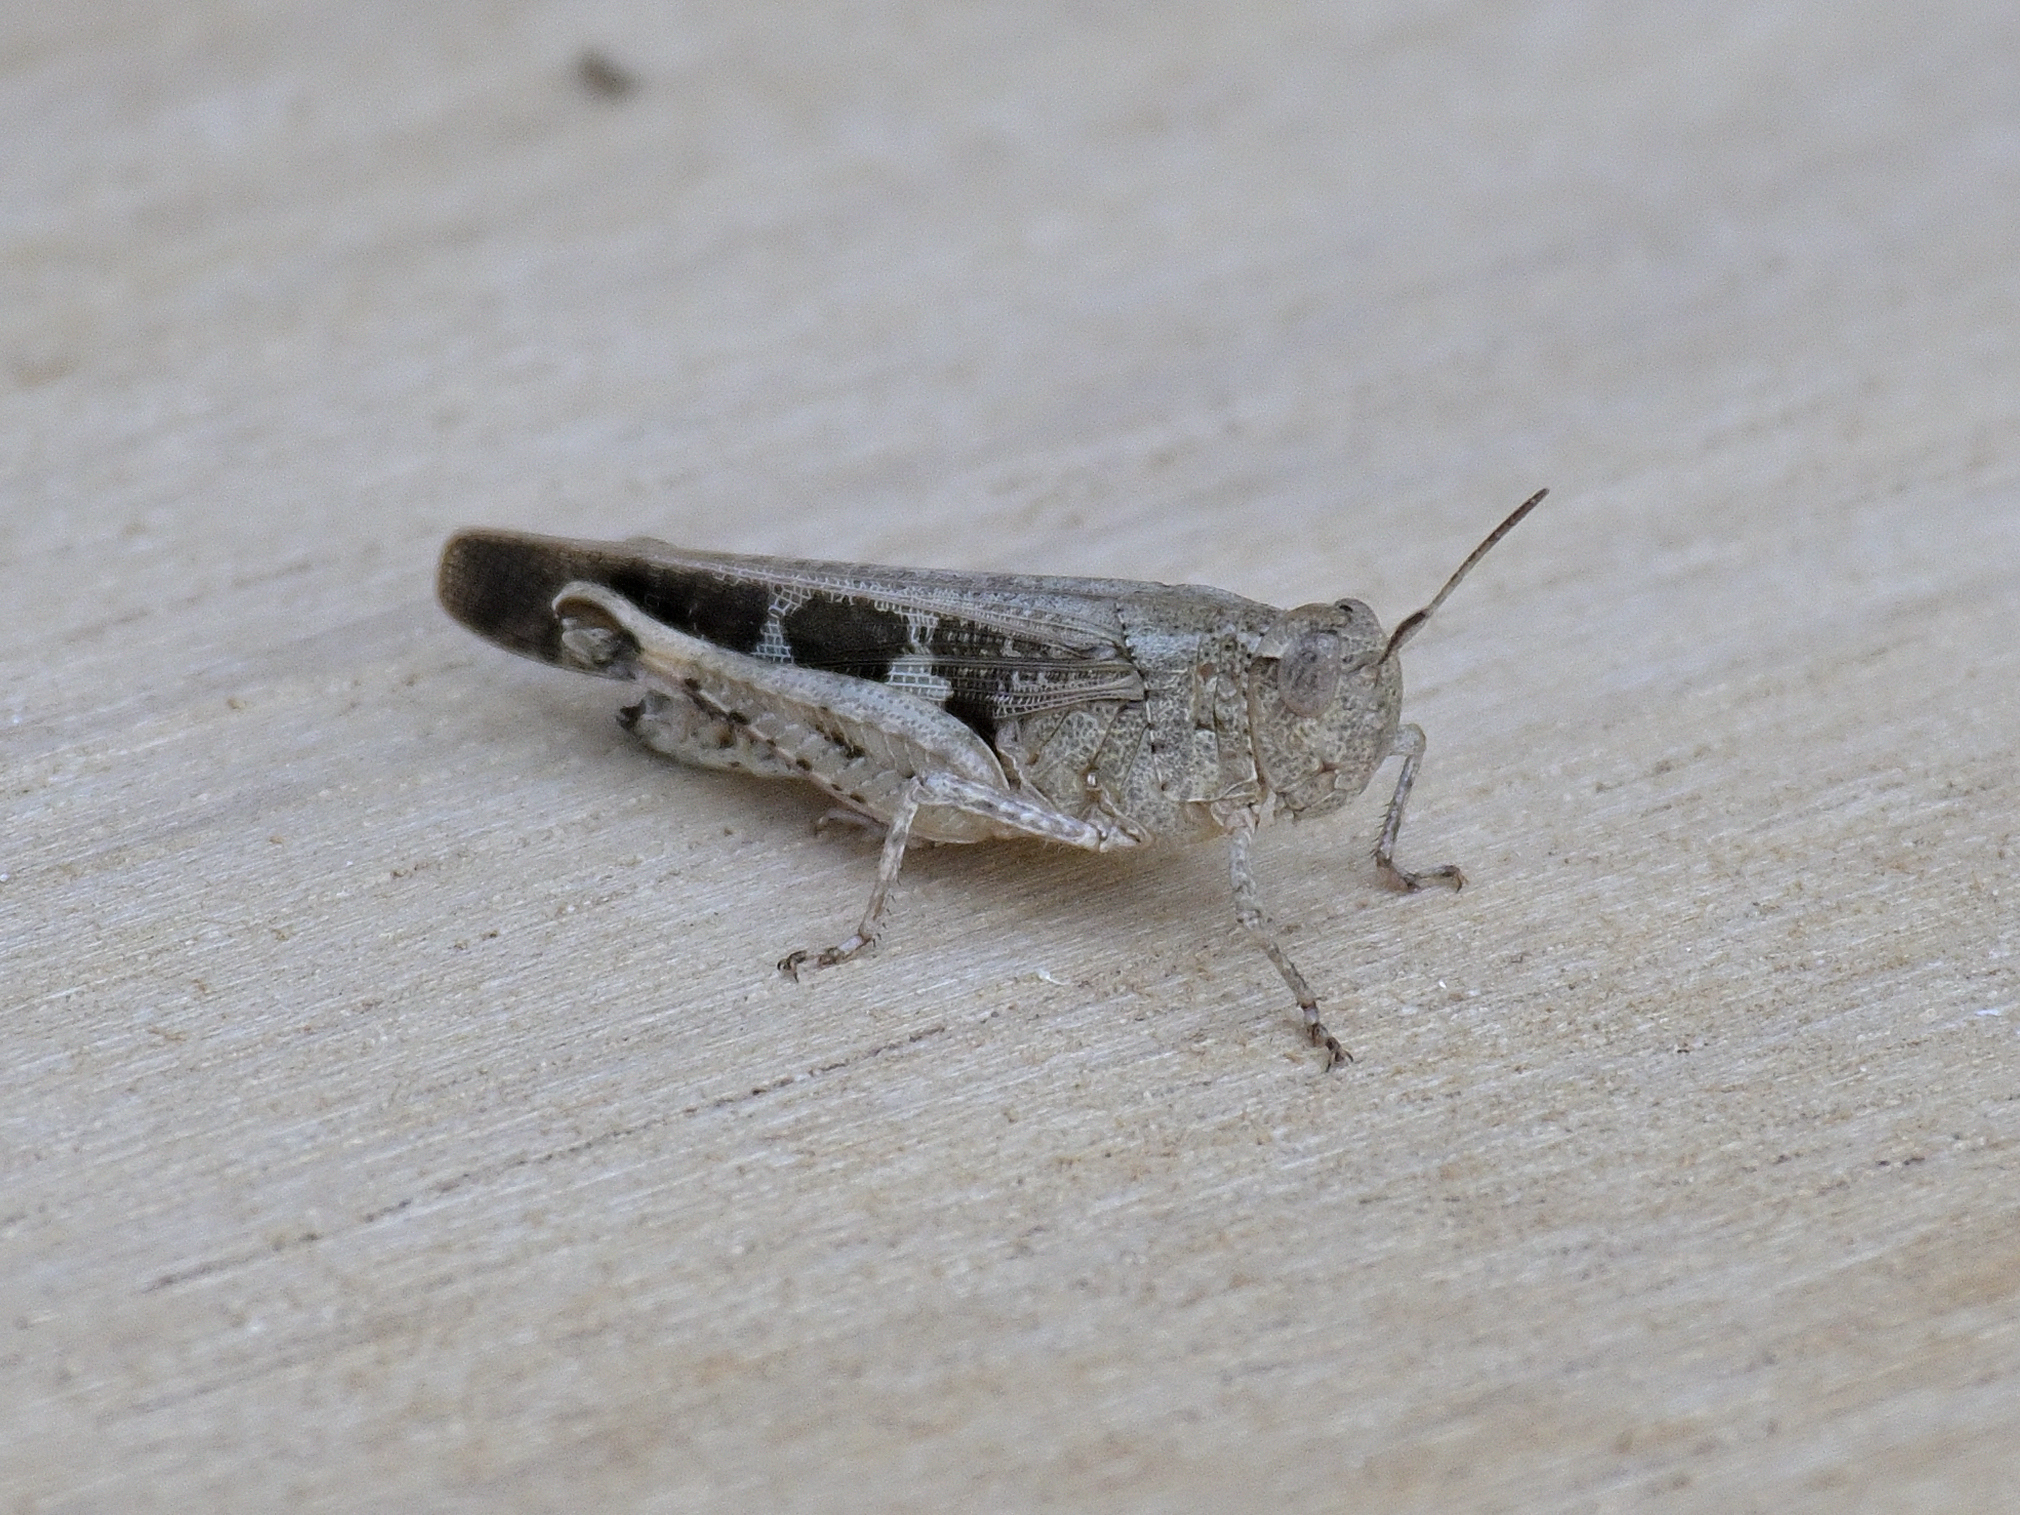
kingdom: Animalia
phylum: Arthropoda
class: Insecta
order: Orthoptera
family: Acrididae
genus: Aiolopus
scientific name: Aiolopus strepens
